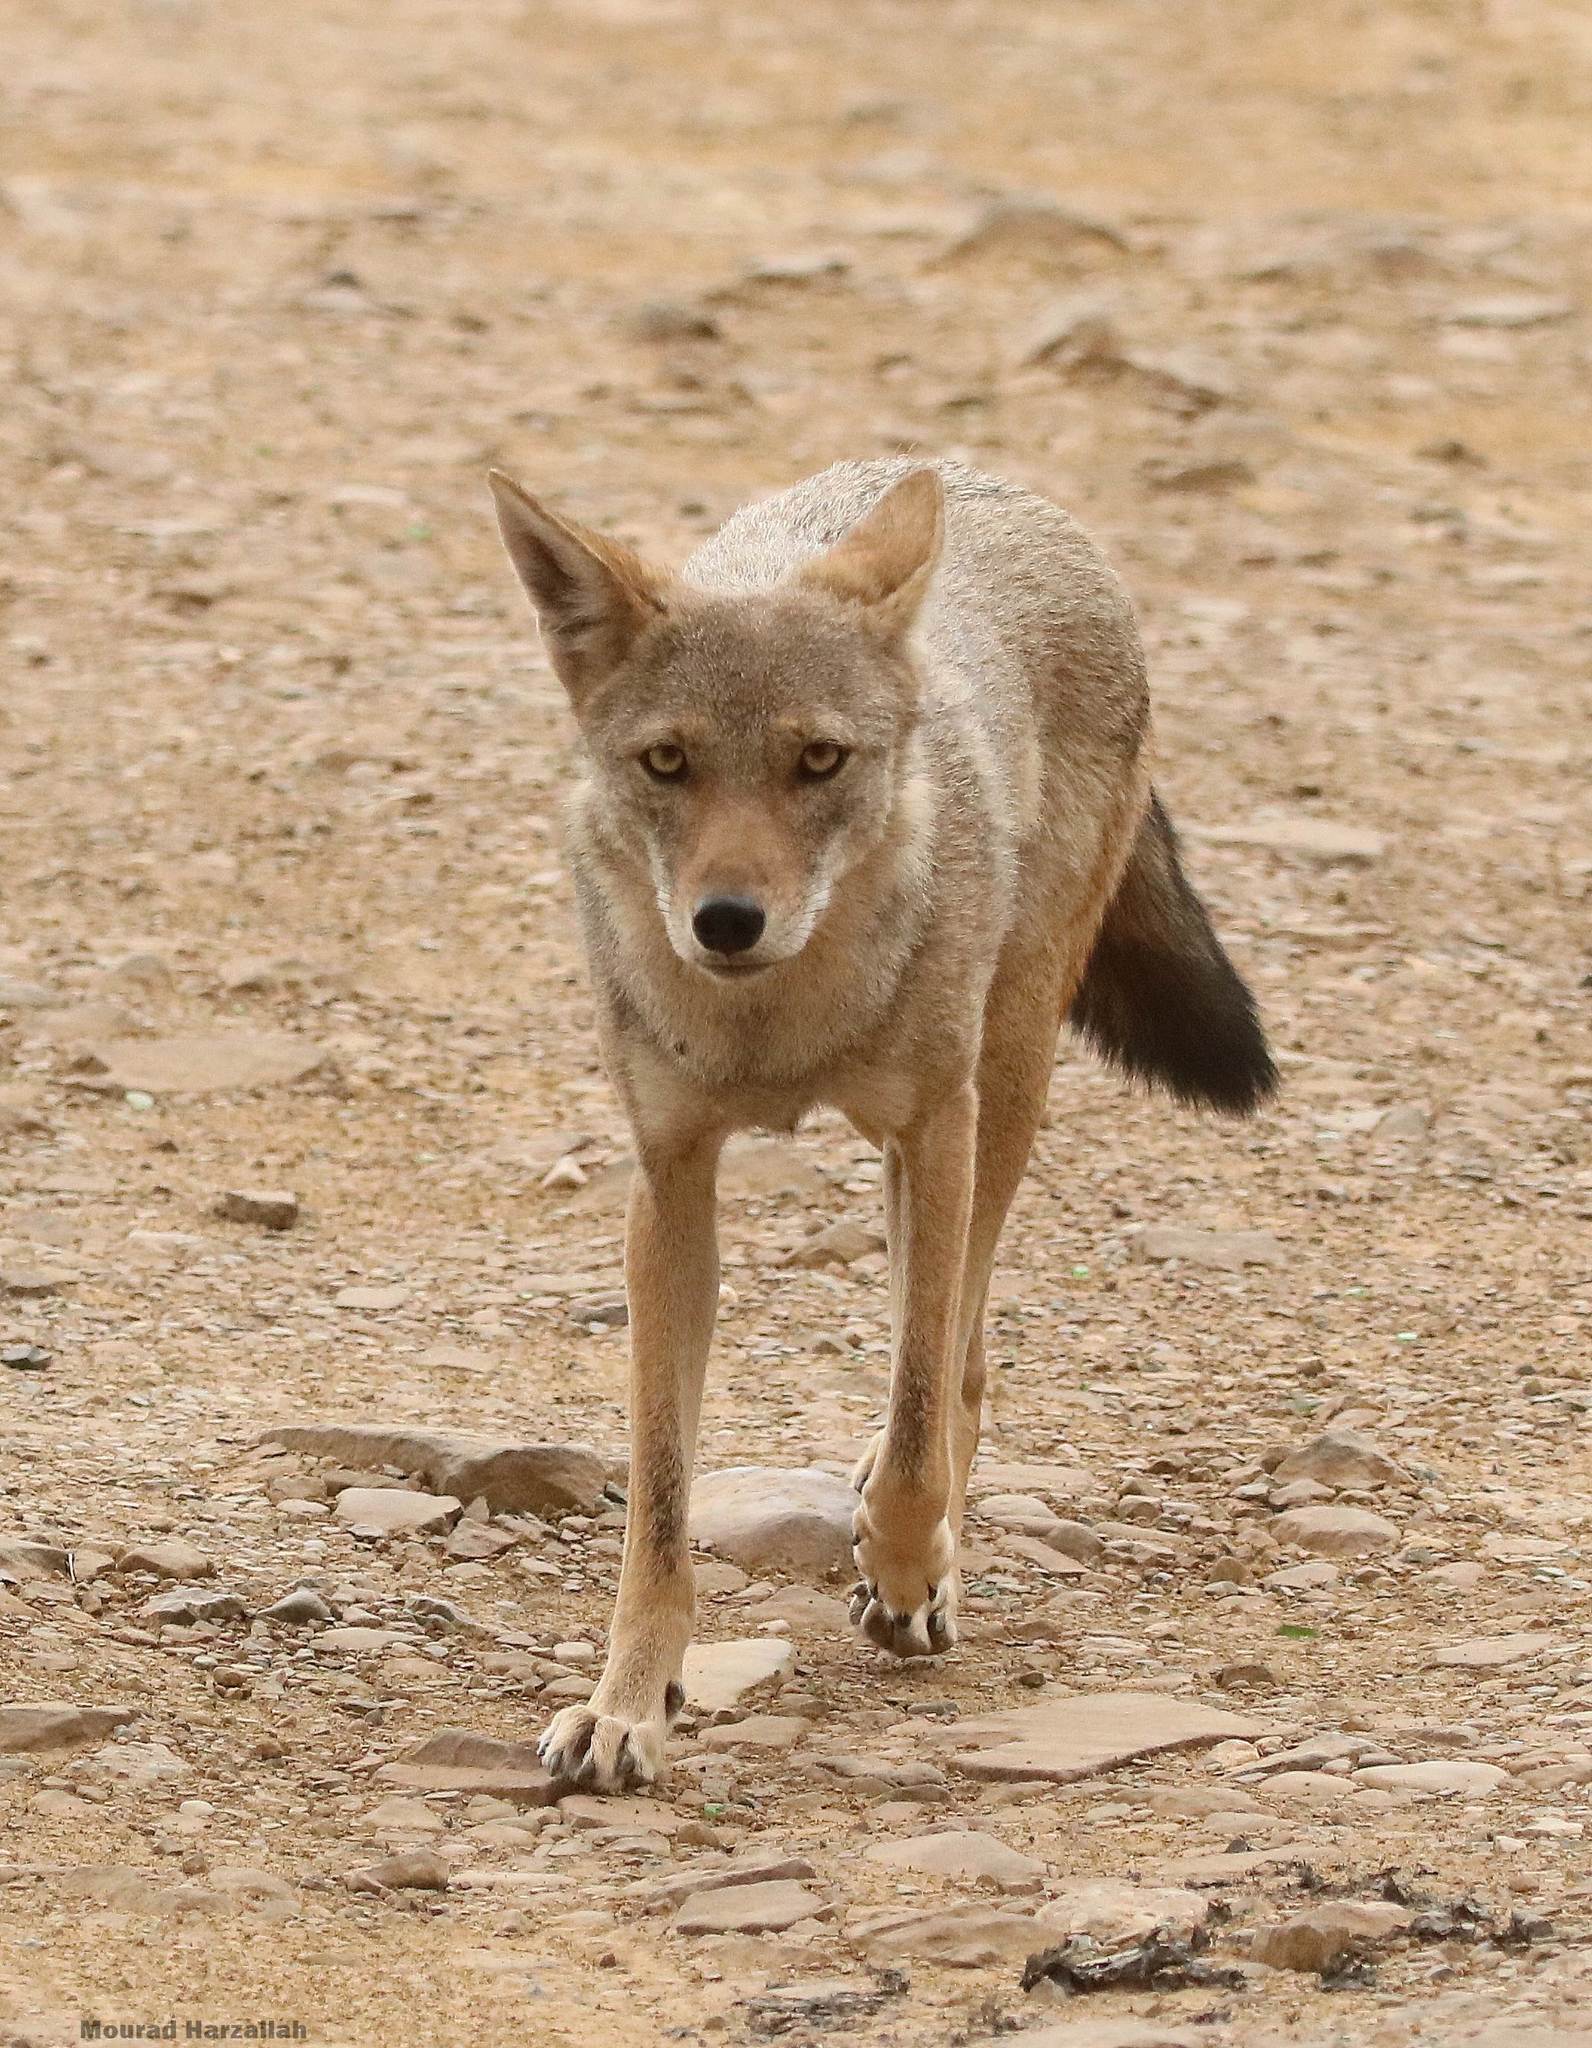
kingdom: Animalia
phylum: Chordata
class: Mammalia
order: Carnivora
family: Canidae
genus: Canis
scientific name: Canis lupaster
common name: African golden wolf
